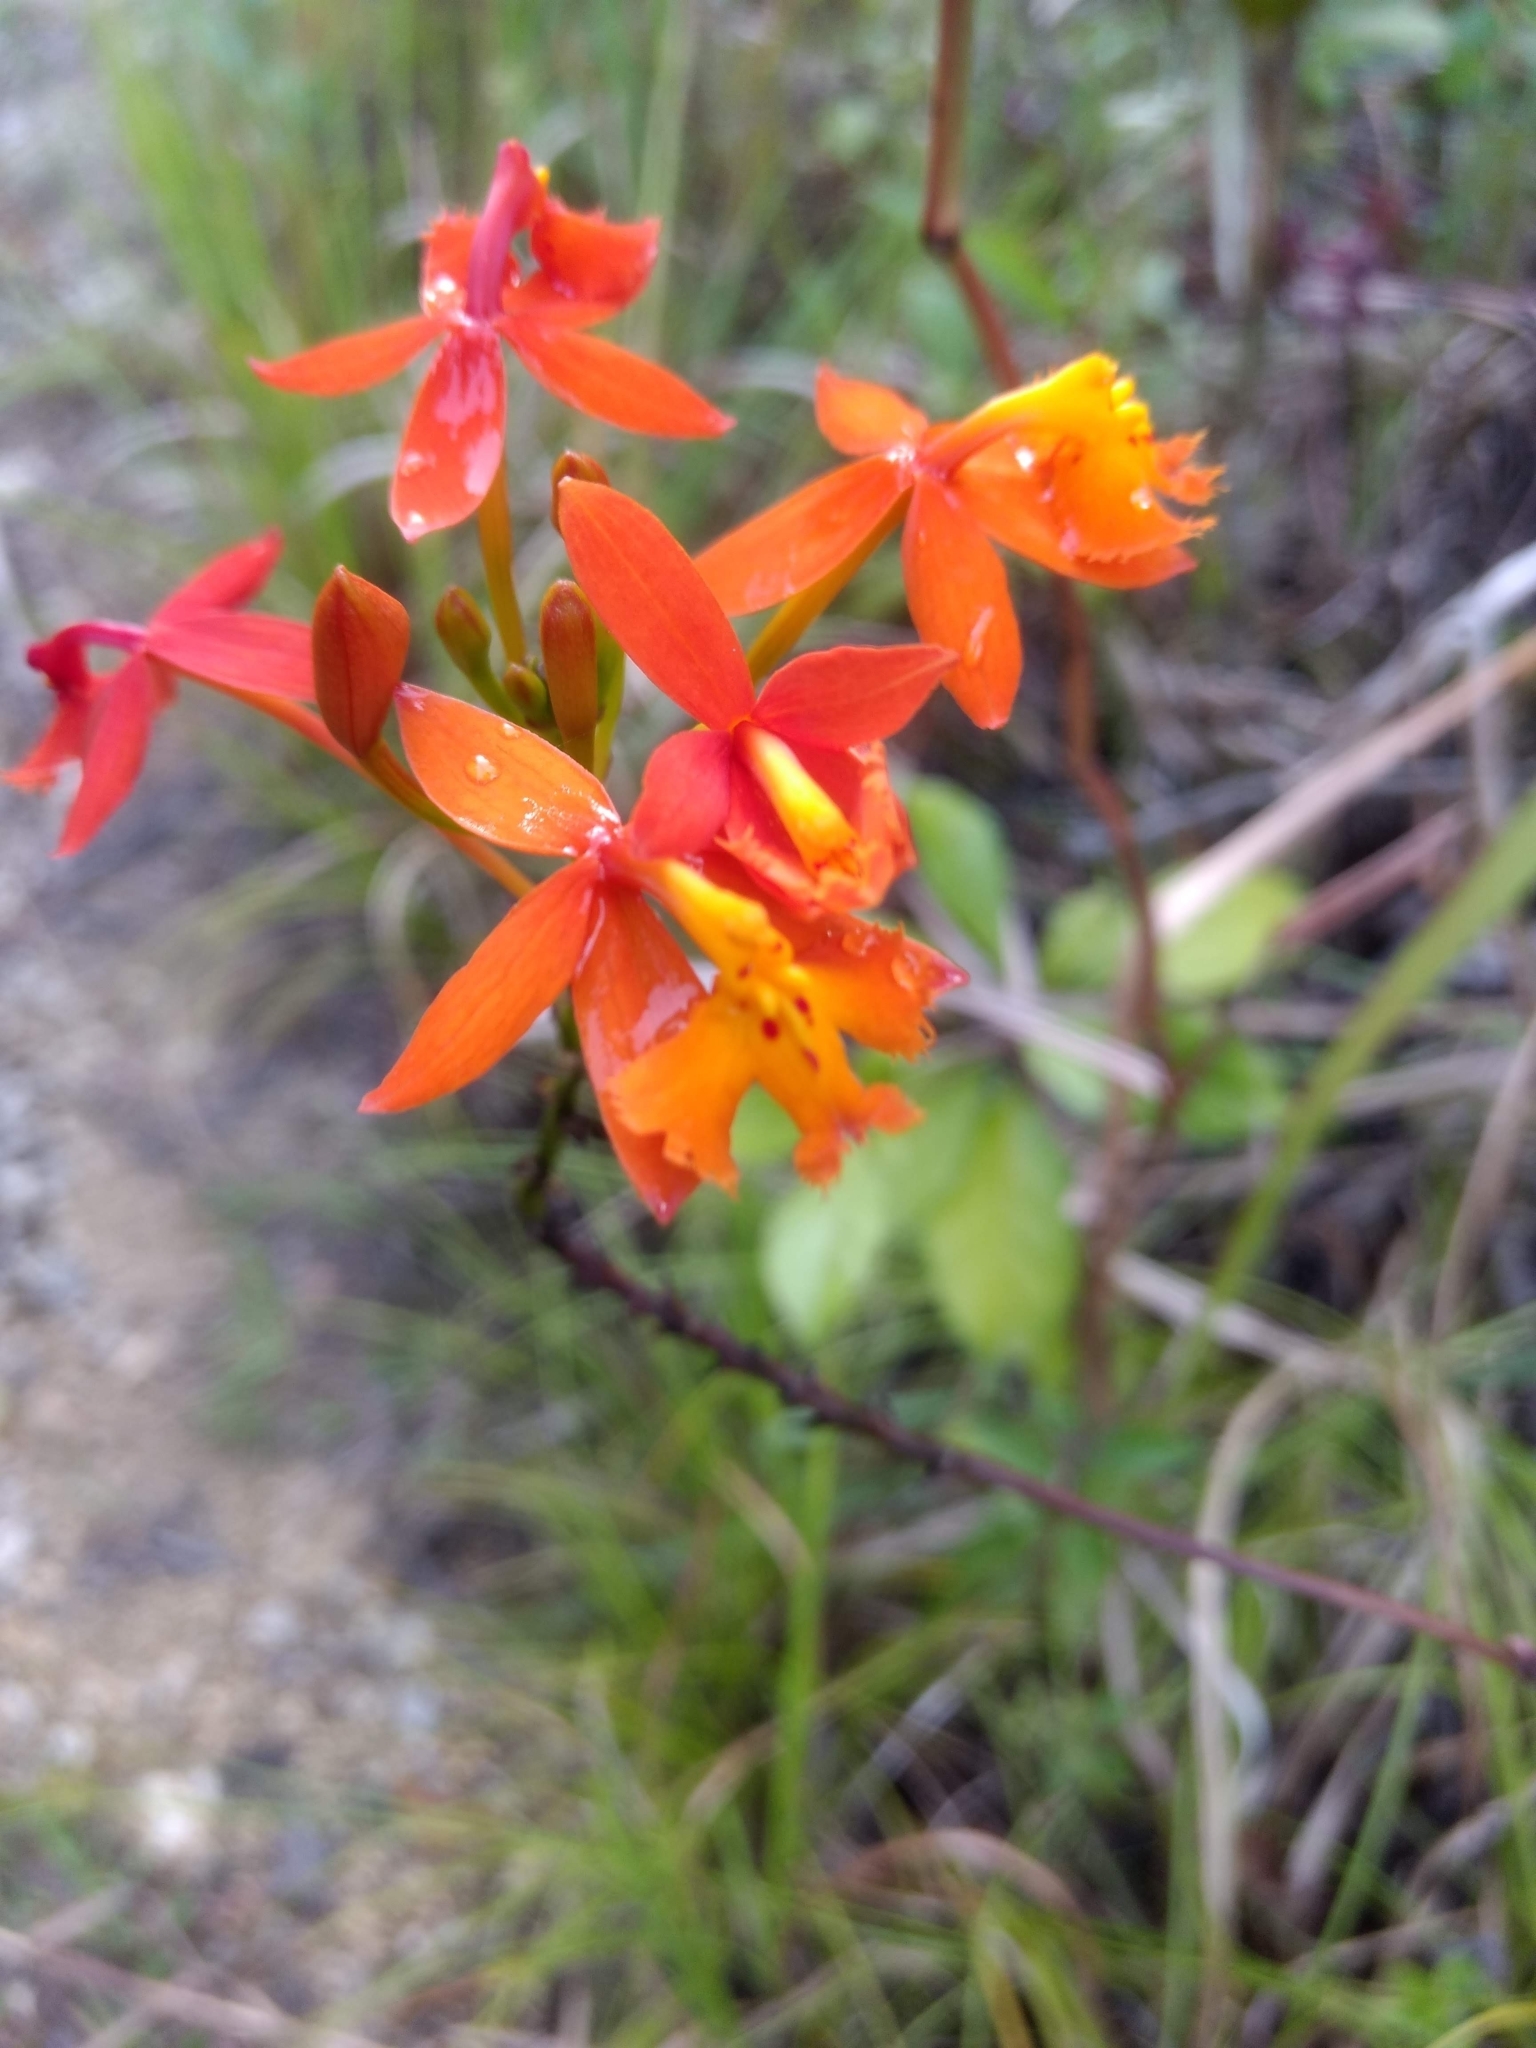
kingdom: Plantae
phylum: Tracheophyta
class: Liliopsida
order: Asparagales
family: Orchidaceae
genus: Epidendrum
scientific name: Epidendrum radicans
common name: Fire star orchid
